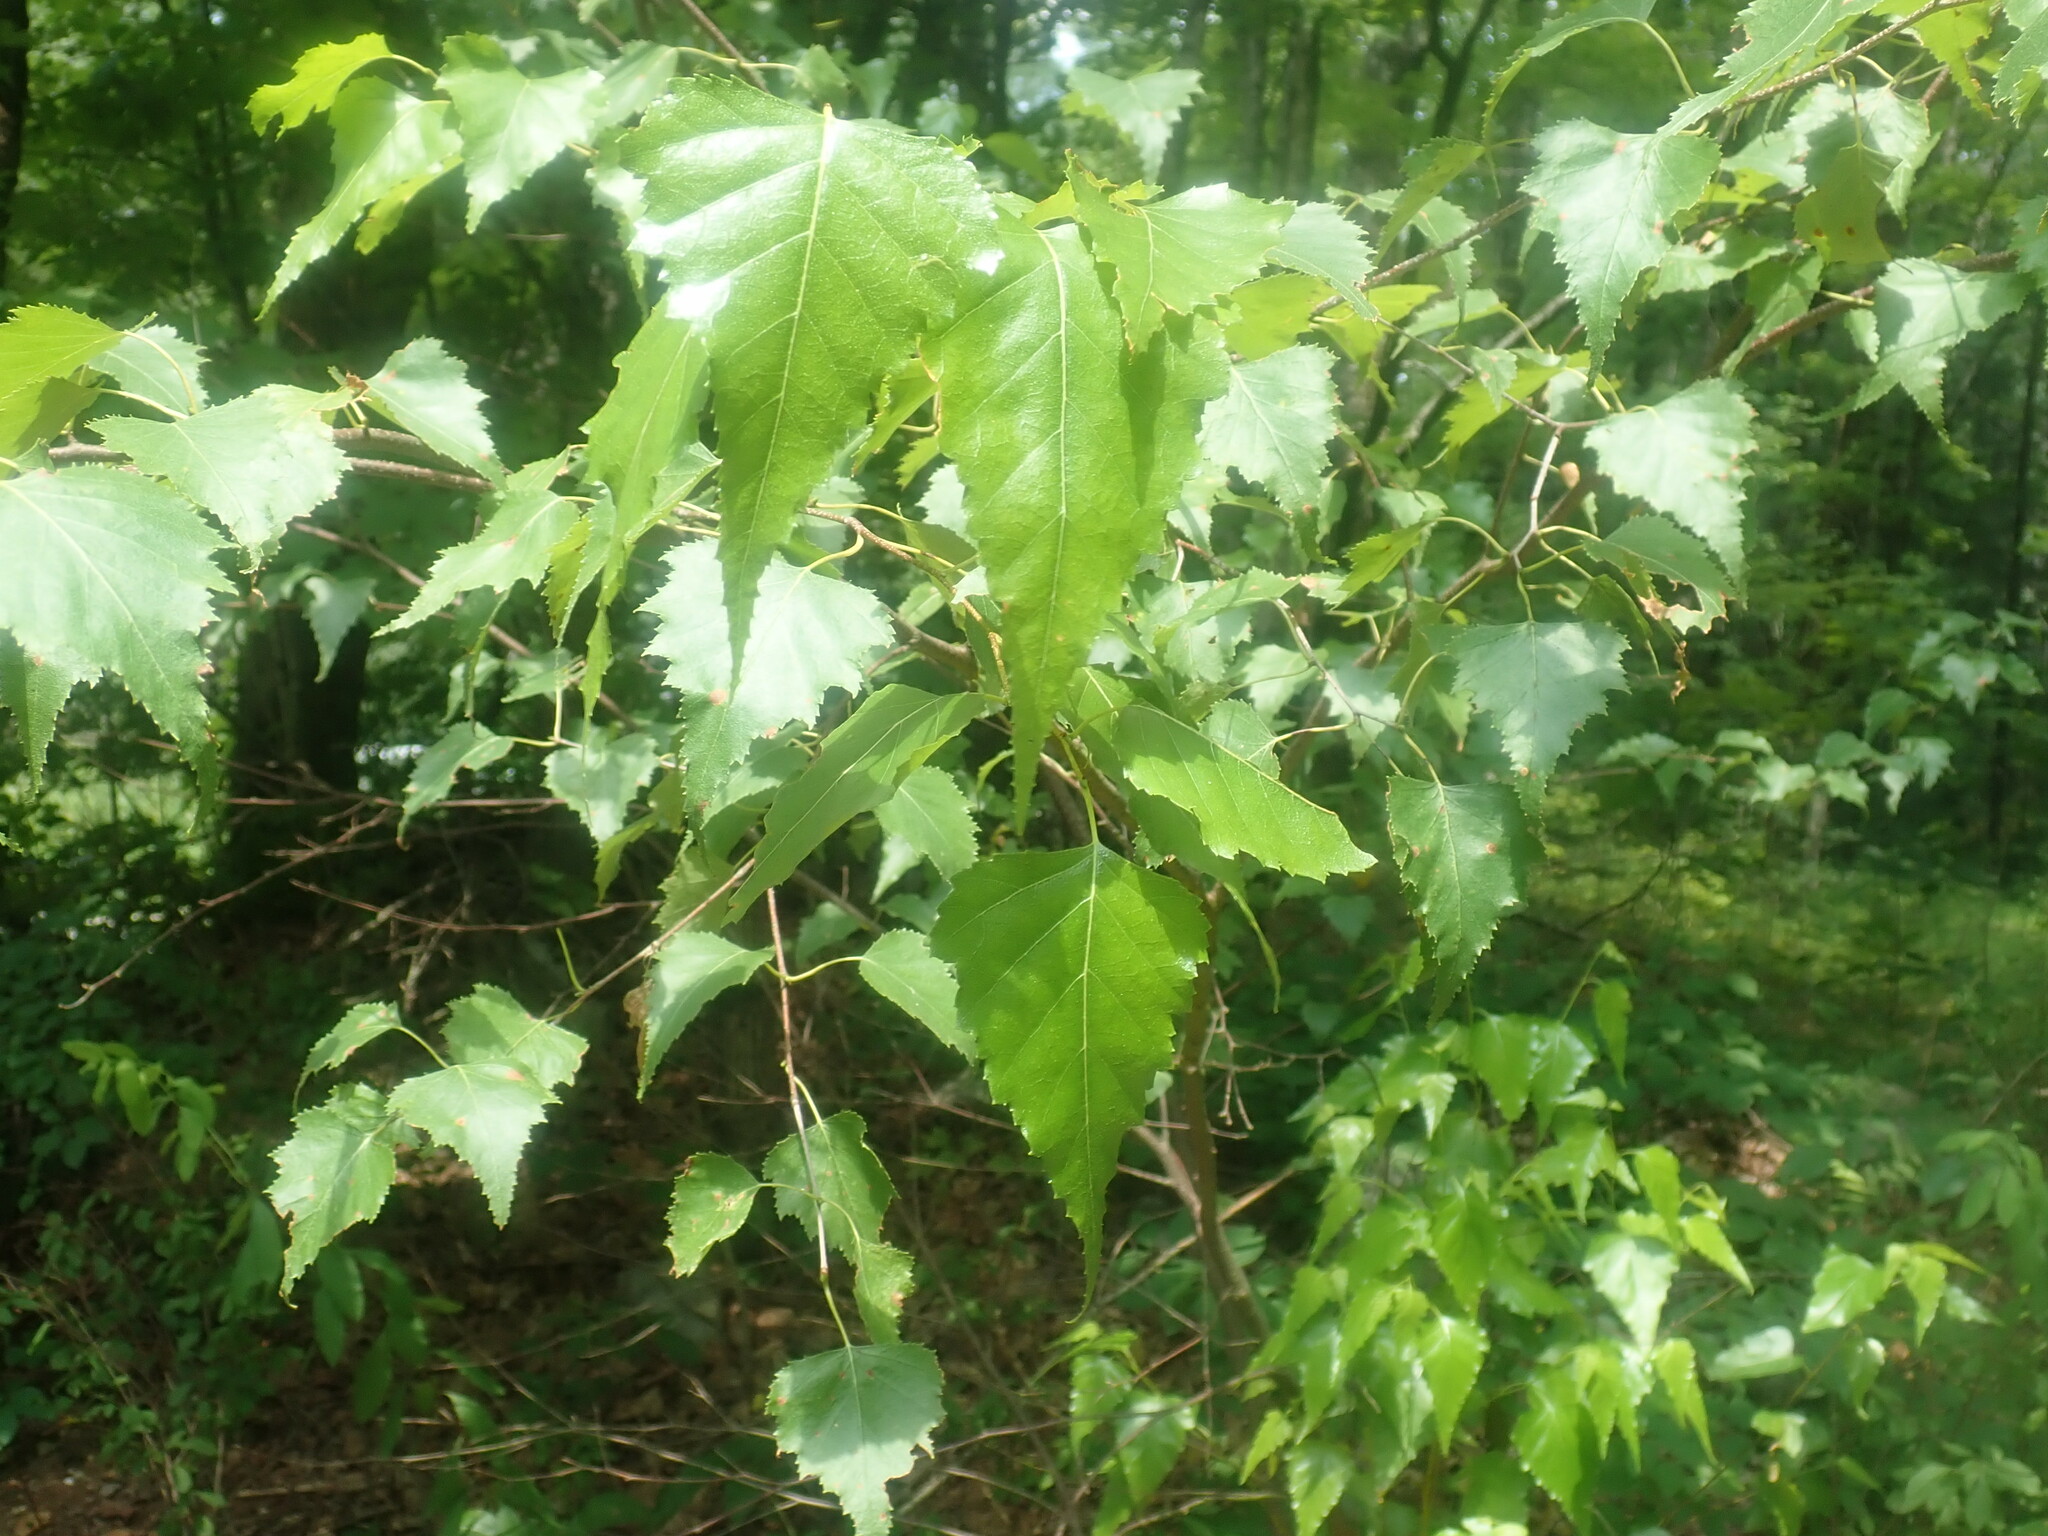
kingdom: Plantae
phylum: Tracheophyta
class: Magnoliopsida
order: Fagales
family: Betulaceae
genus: Betula
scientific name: Betula populifolia
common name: Fire birch
